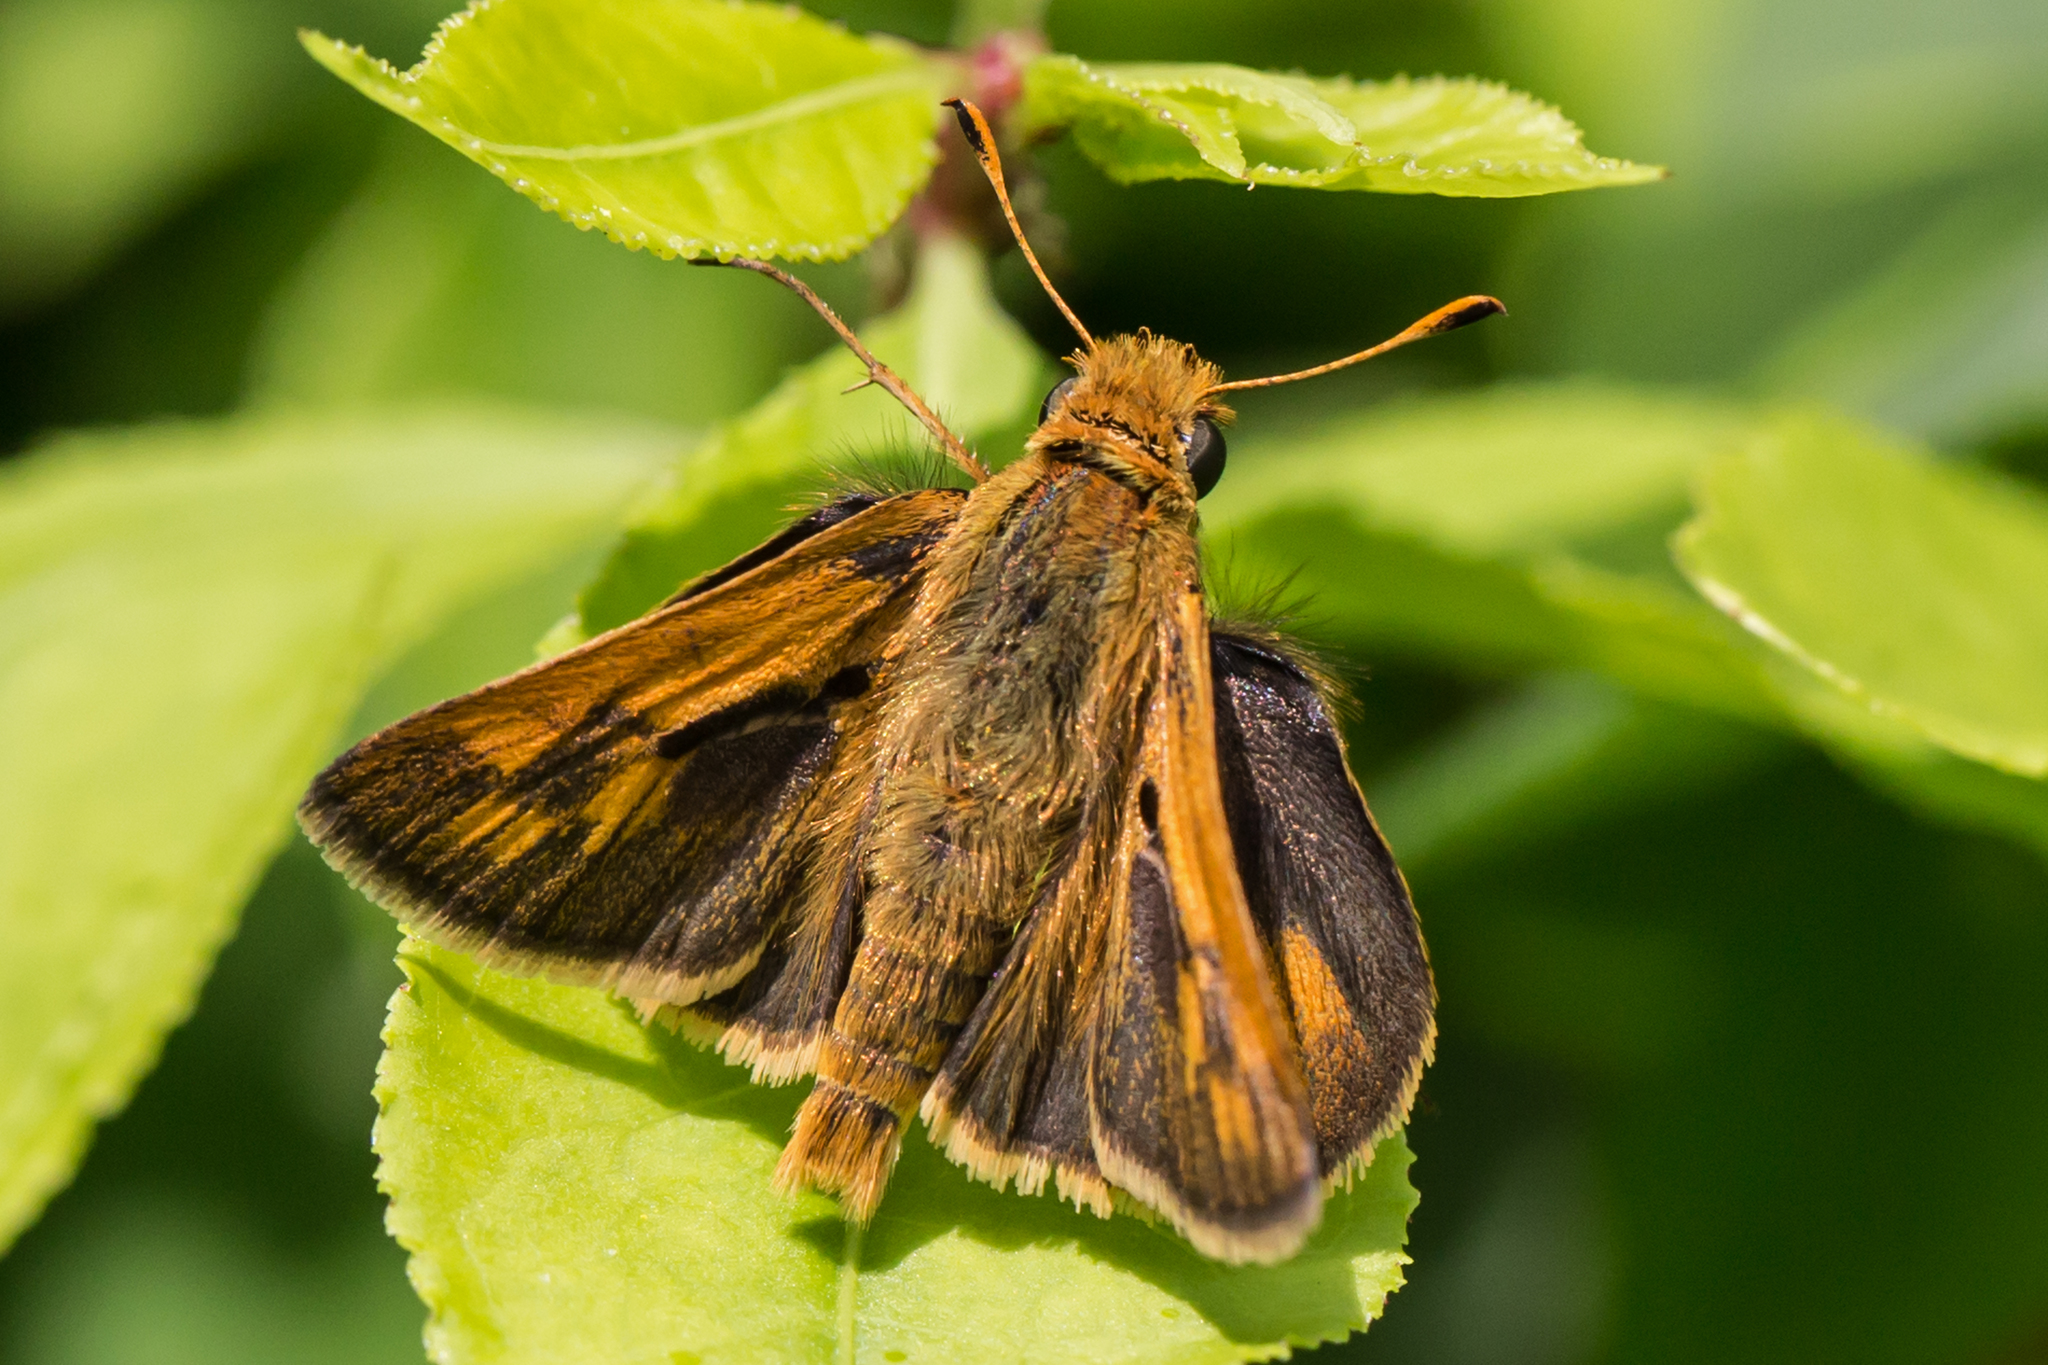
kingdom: Animalia
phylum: Arthropoda
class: Insecta
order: Lepidoptera
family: Hesperiidae
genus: Polites
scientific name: Polites coras
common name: Peck's skipper
